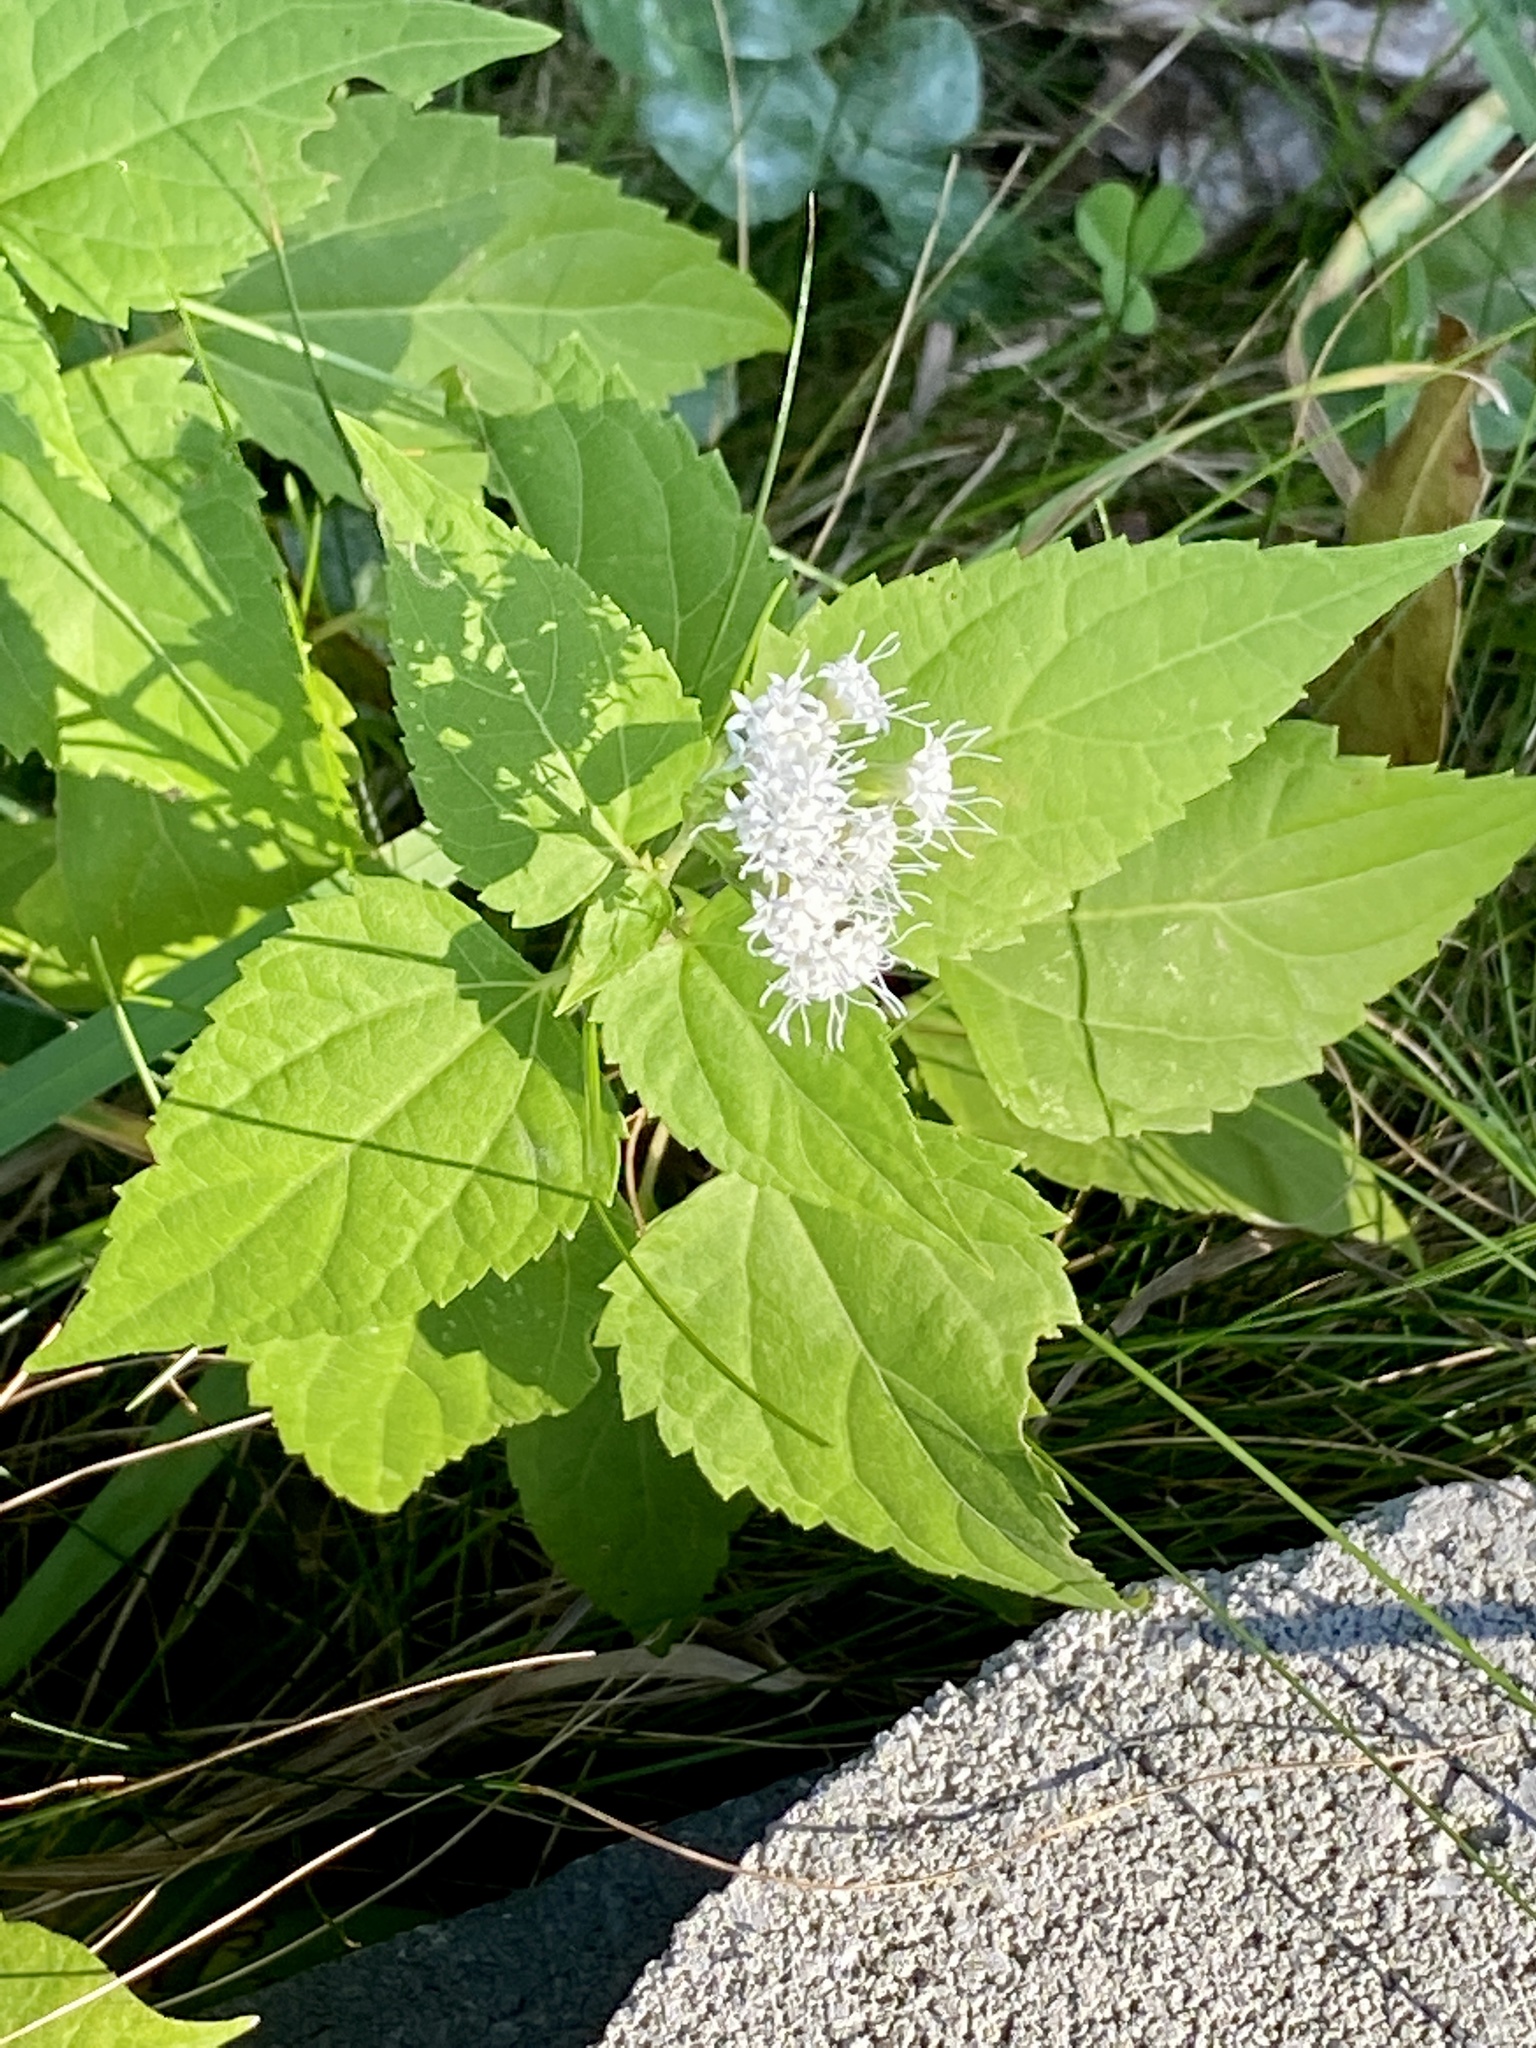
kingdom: Plantae
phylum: Tracheophyta
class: Magnoliopsida
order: Asterales
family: Asteraceae
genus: Ageratina
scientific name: Ageratina altissima
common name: White snakeroot
